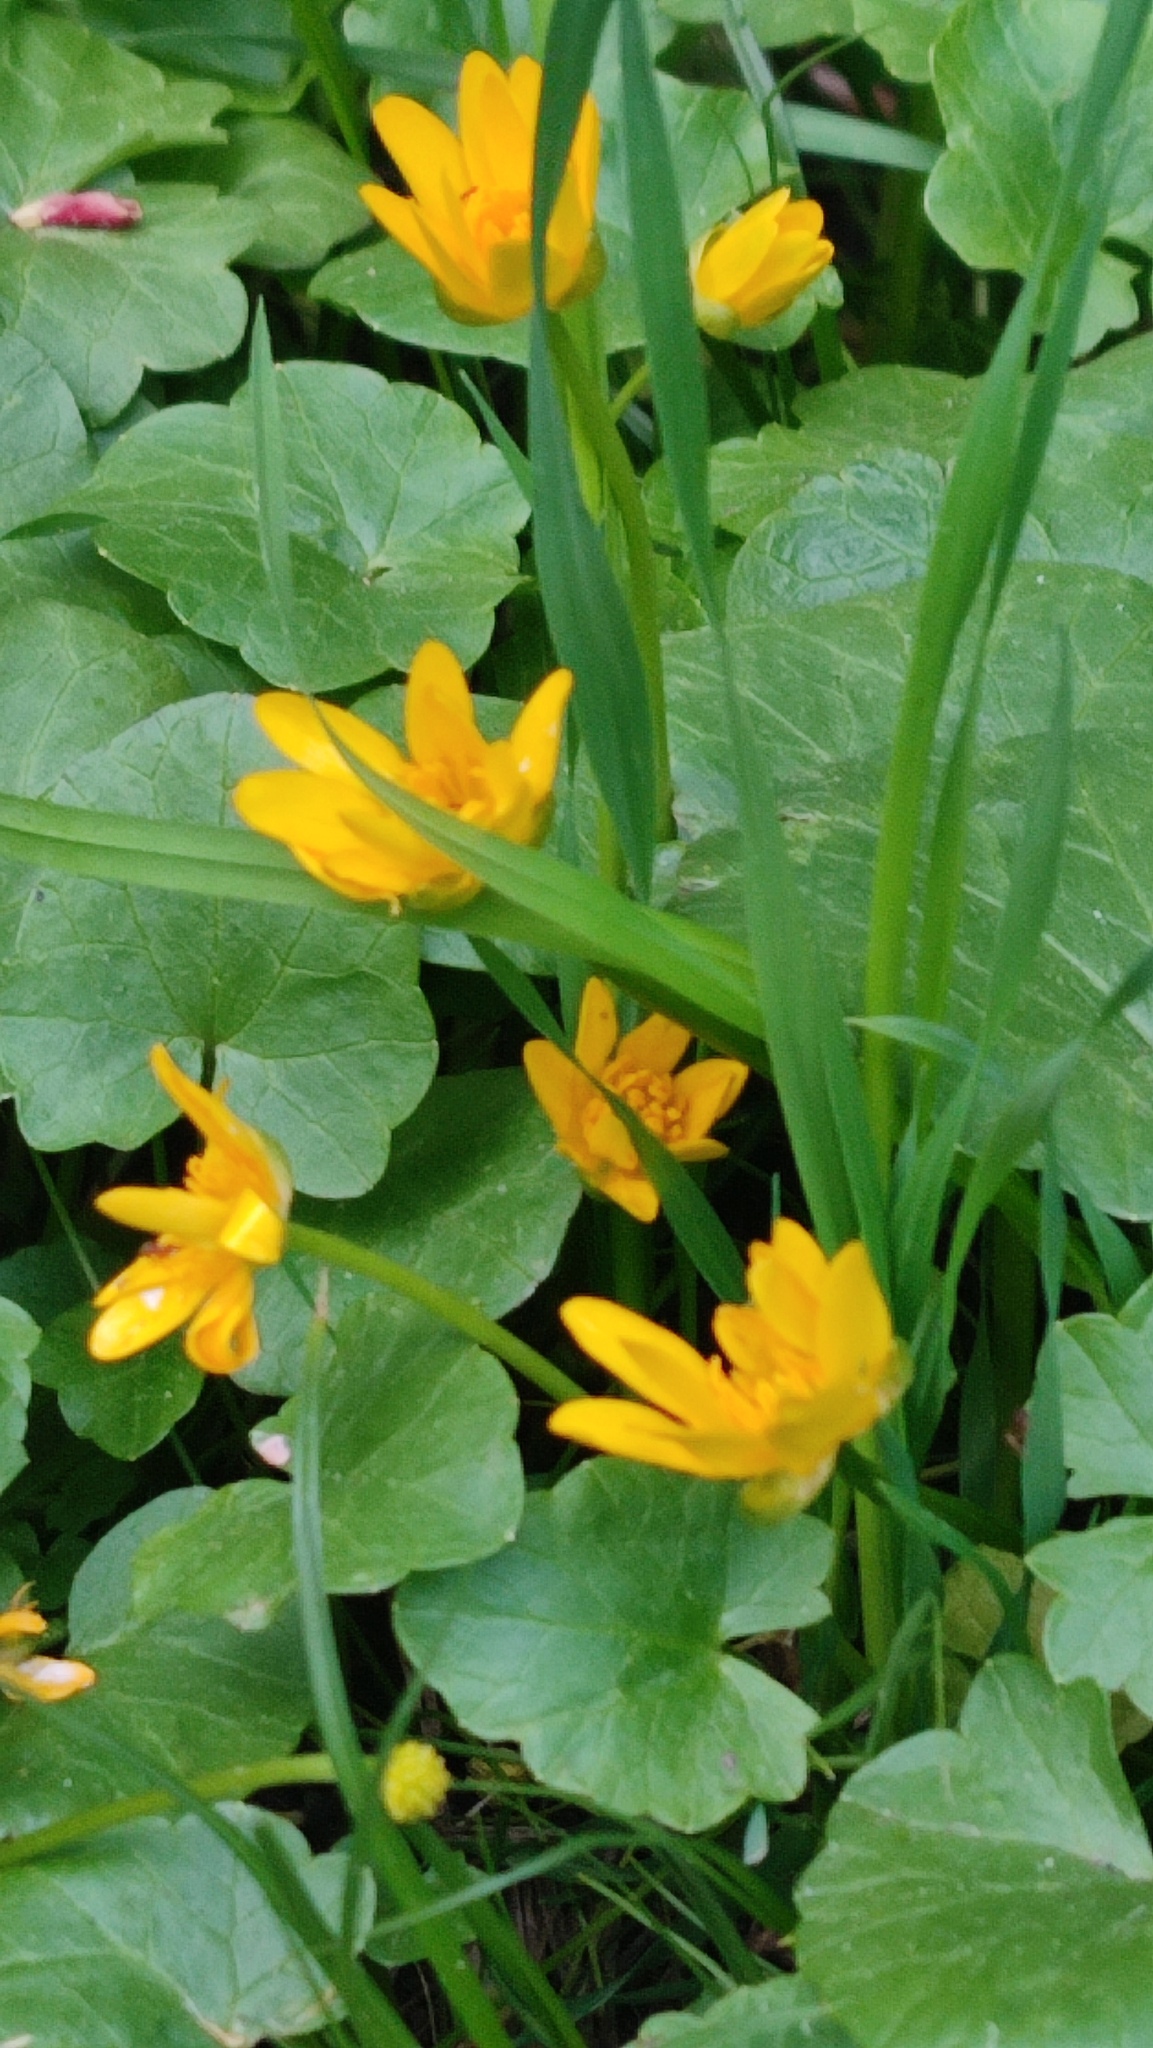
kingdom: Plantae
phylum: Tracheophyta
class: Magnoliopsida
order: Ranunculales
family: Ranunculaceae
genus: Ficaria
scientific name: Ficaria verna
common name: Lesser celandine
